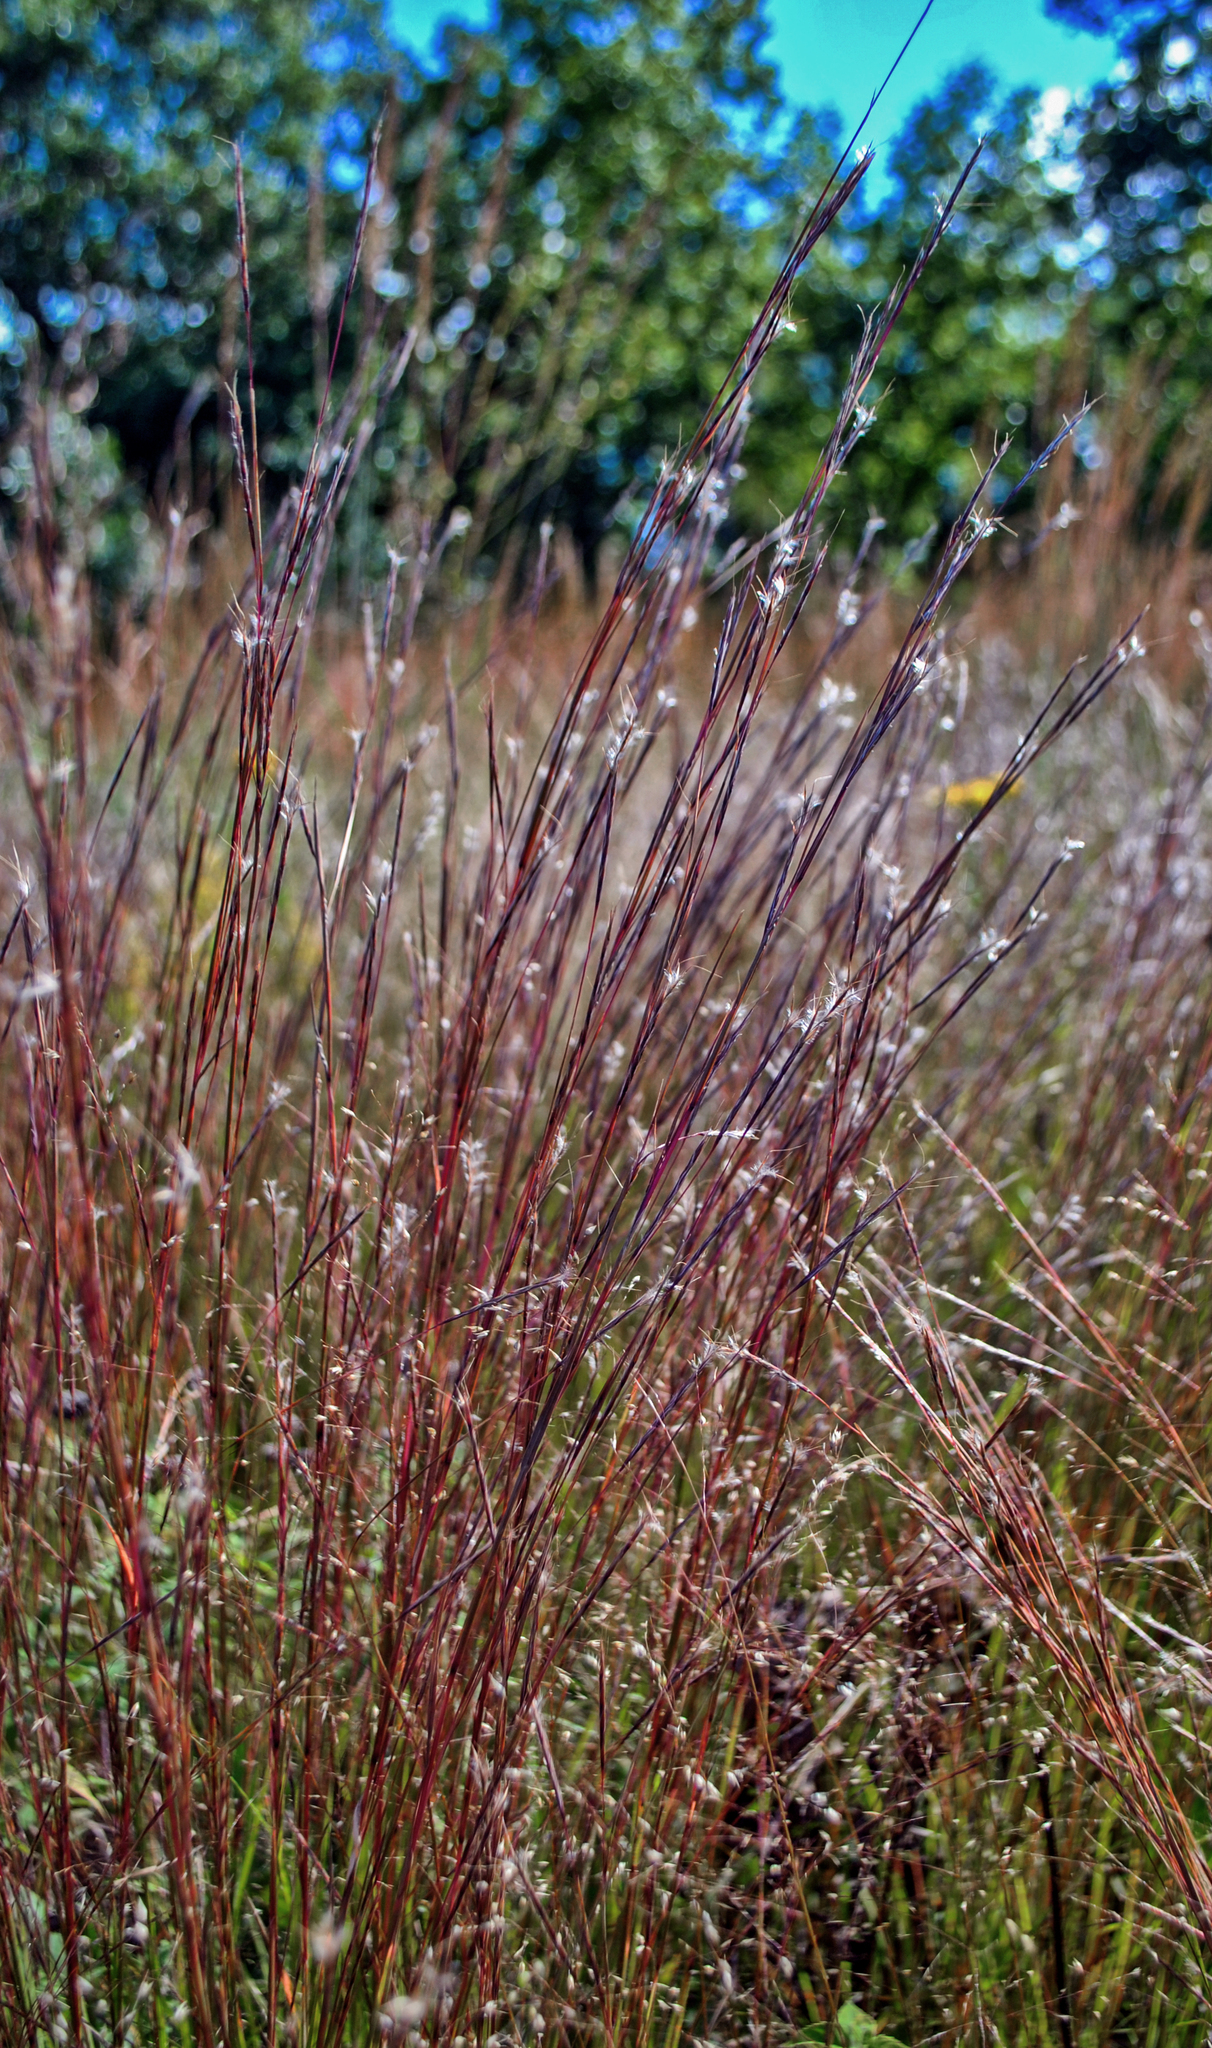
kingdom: Plantae
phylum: Tracheophyta
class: Liliopsida
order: Poales
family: Poaceae
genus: Schizachyrium
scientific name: Schizachyrium scoparium
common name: Little bluestem
